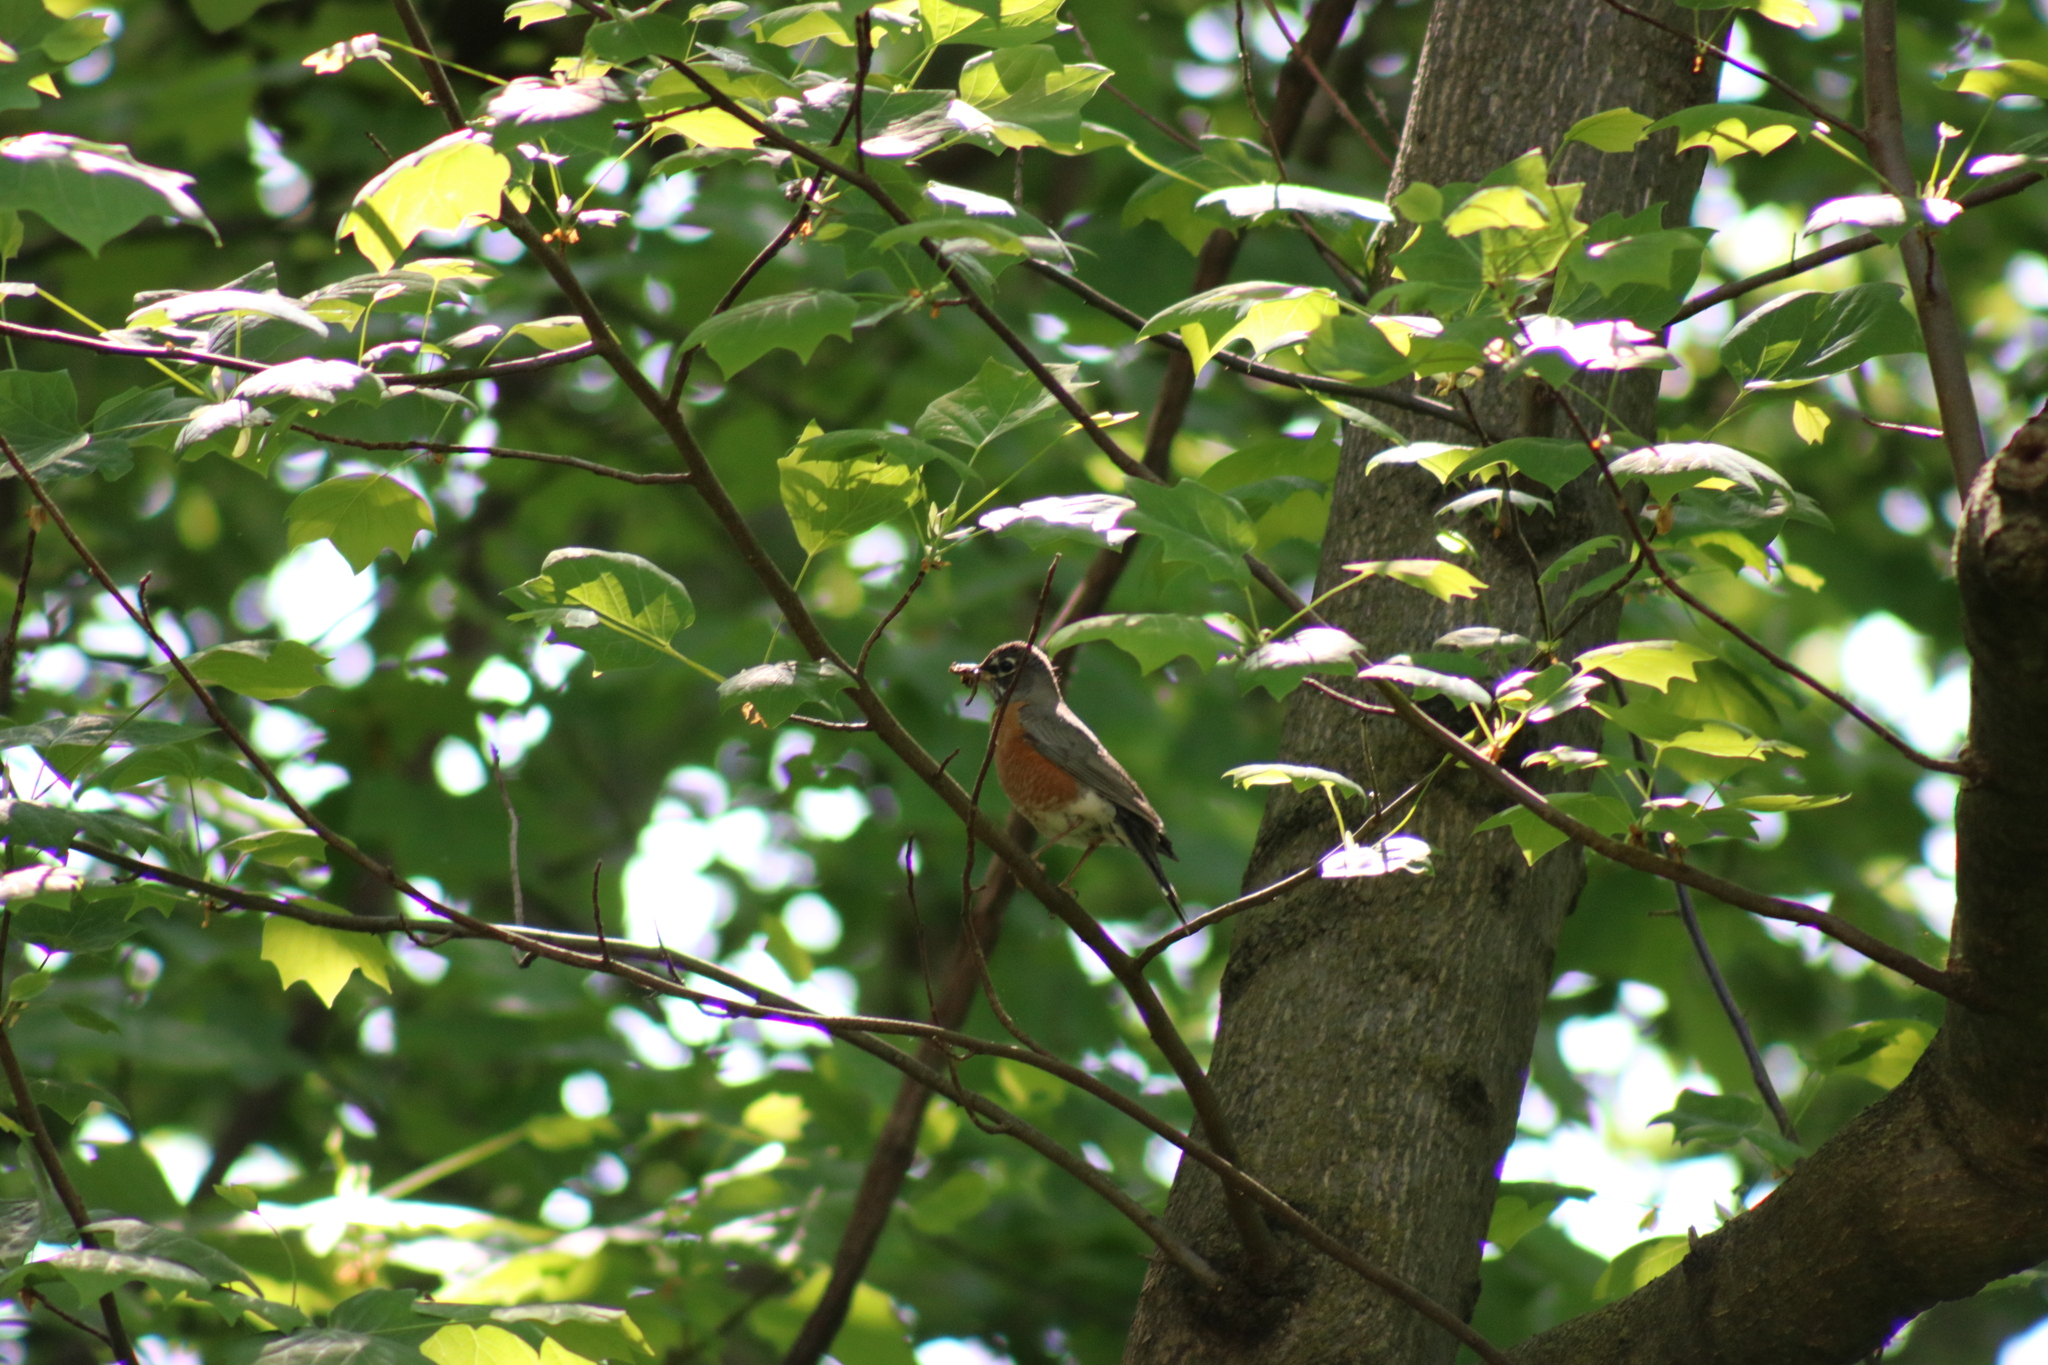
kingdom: Animalia
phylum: Chordata
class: Aves
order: Passeriformes
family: Turdidae
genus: Turdus
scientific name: Turdus migratorius
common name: American robin
